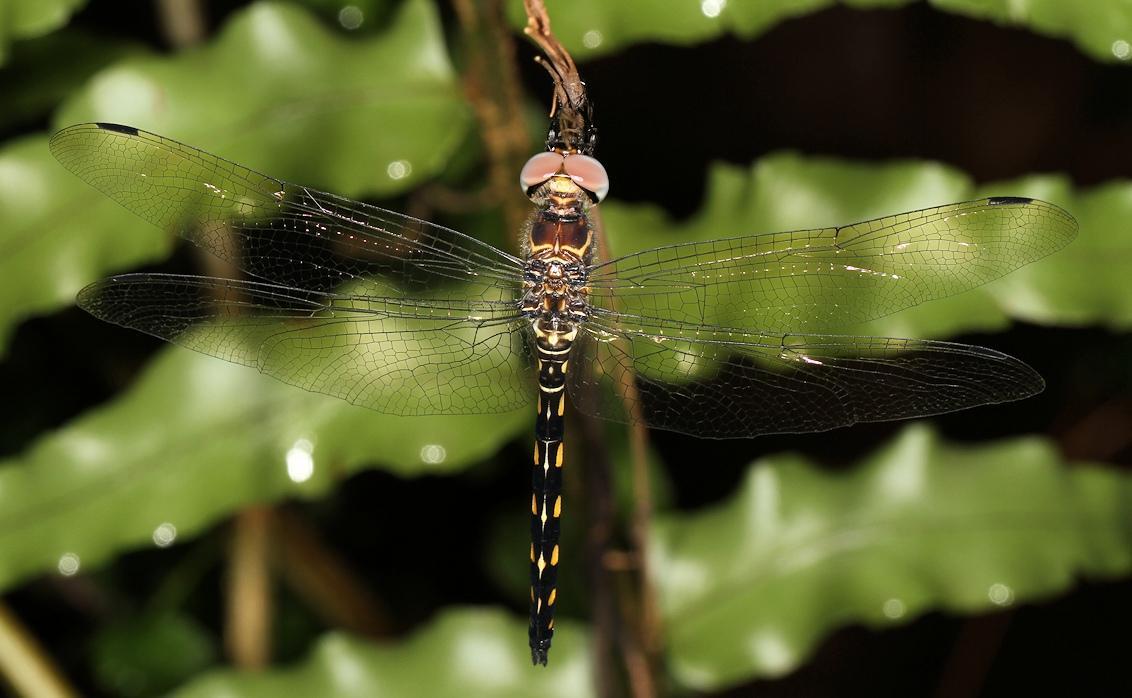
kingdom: Animalia
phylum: Arthropoda
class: Insecta
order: Odonata
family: Libellulidae
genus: Zygonyx
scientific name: Zygonyx torridus
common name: Ringed cascader
